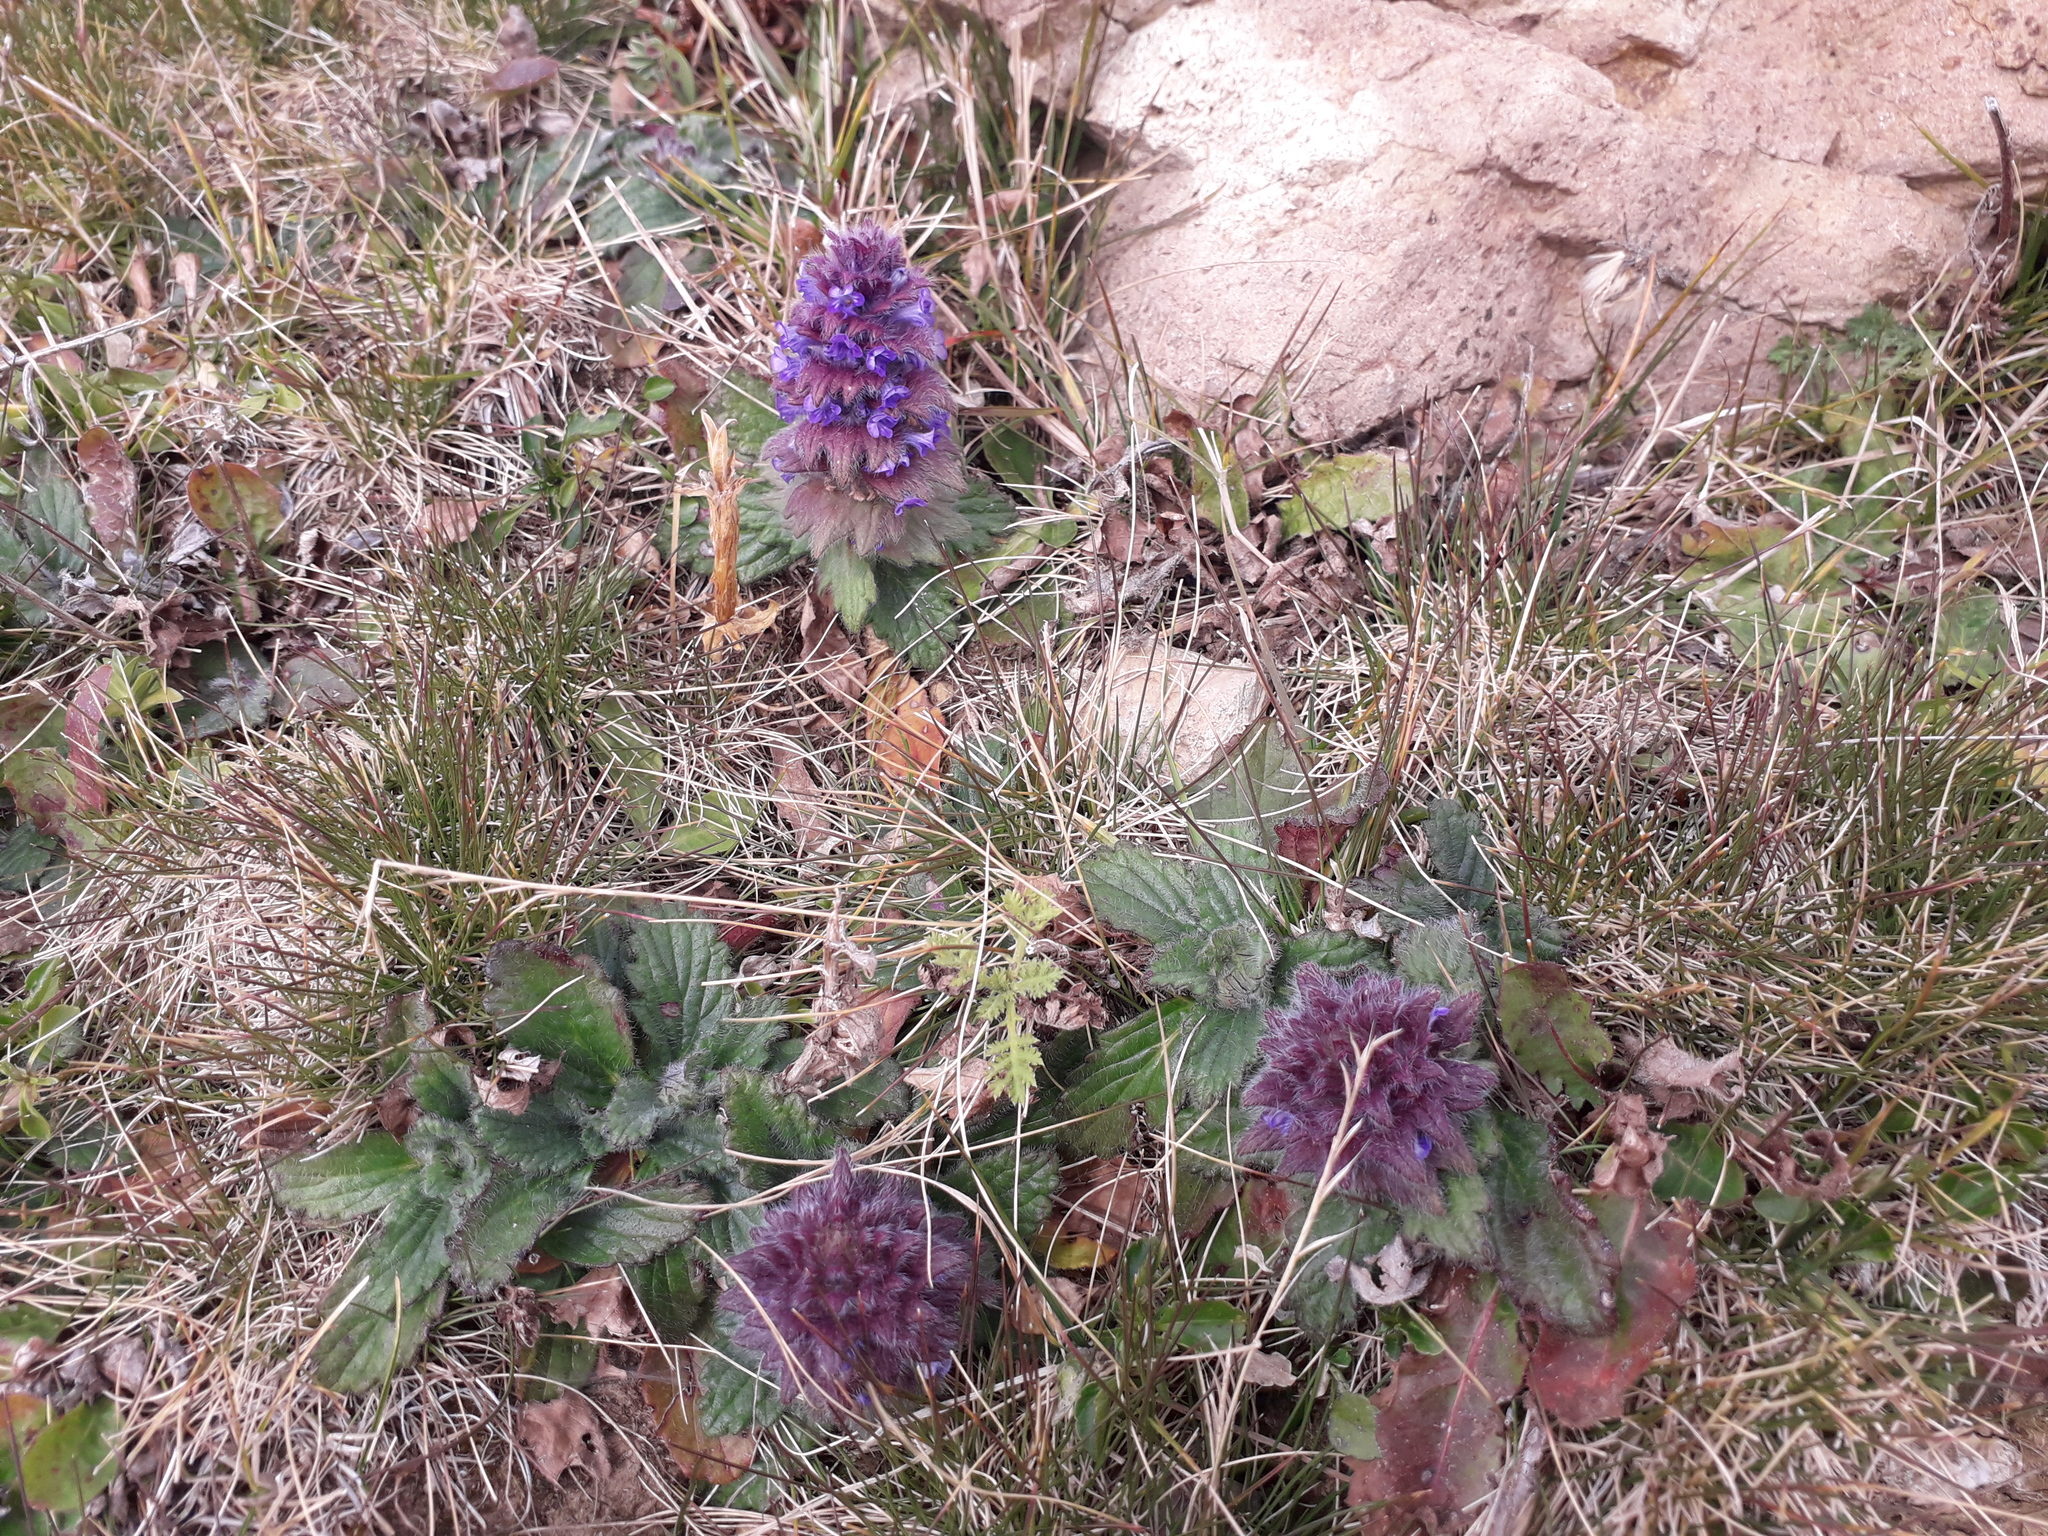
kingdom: Plantae
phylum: Tracheophyta
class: Magnoliopsida
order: Lamiales
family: Lamiaceae
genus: Ajuga
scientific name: Ajuga orientalis
